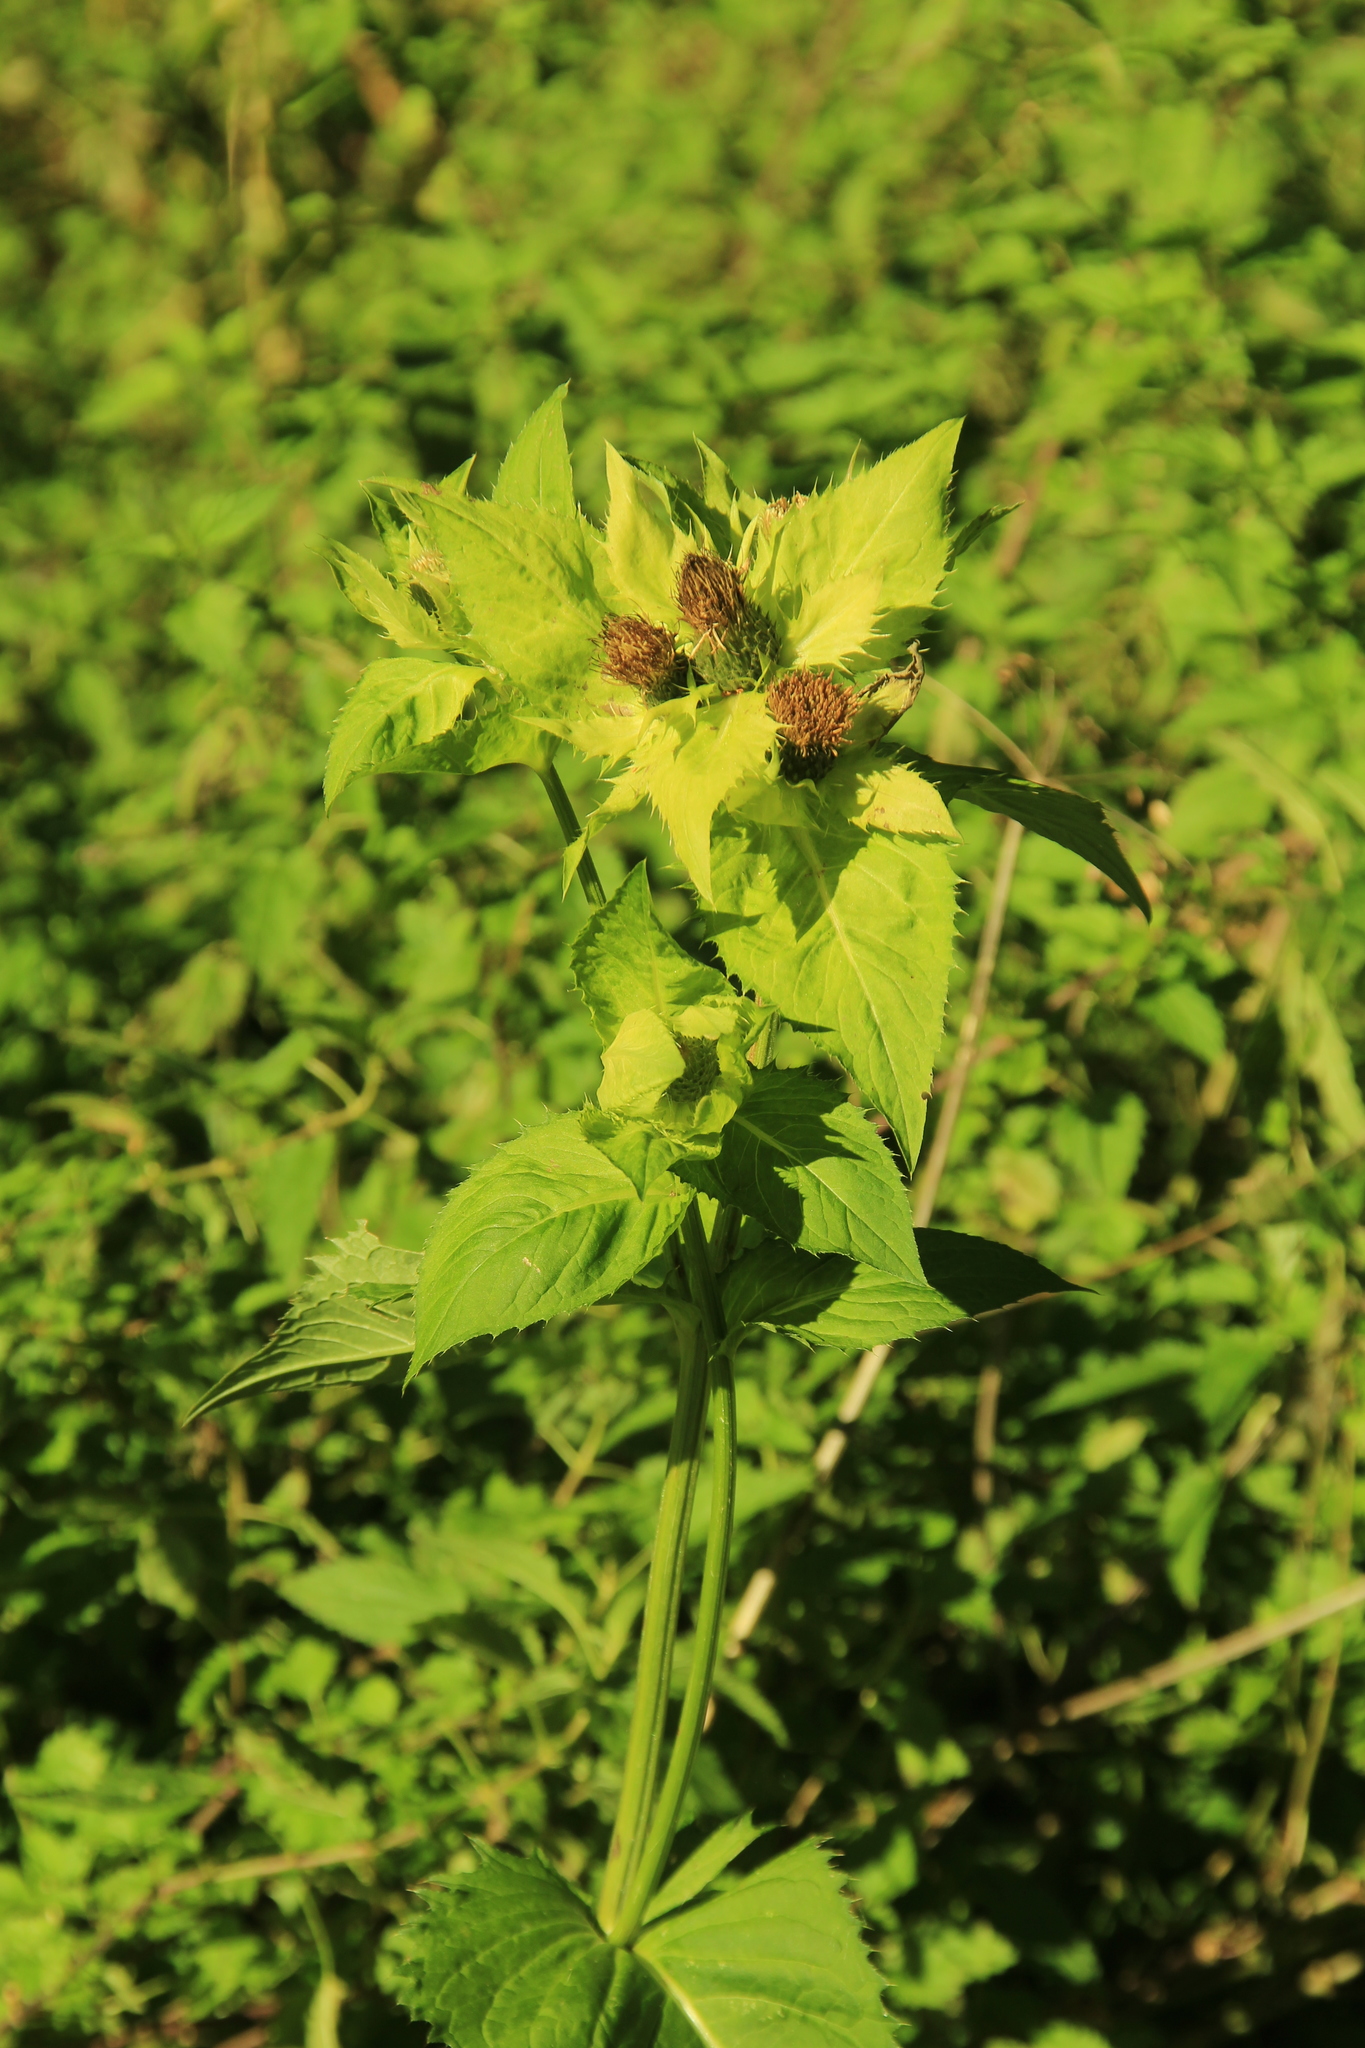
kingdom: Plantae
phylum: Tracheophyta
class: Magnoliopsida
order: Asterales
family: Asteraceae
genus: Cirsium
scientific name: Cirsium oleraceum
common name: Cabbage thistle
